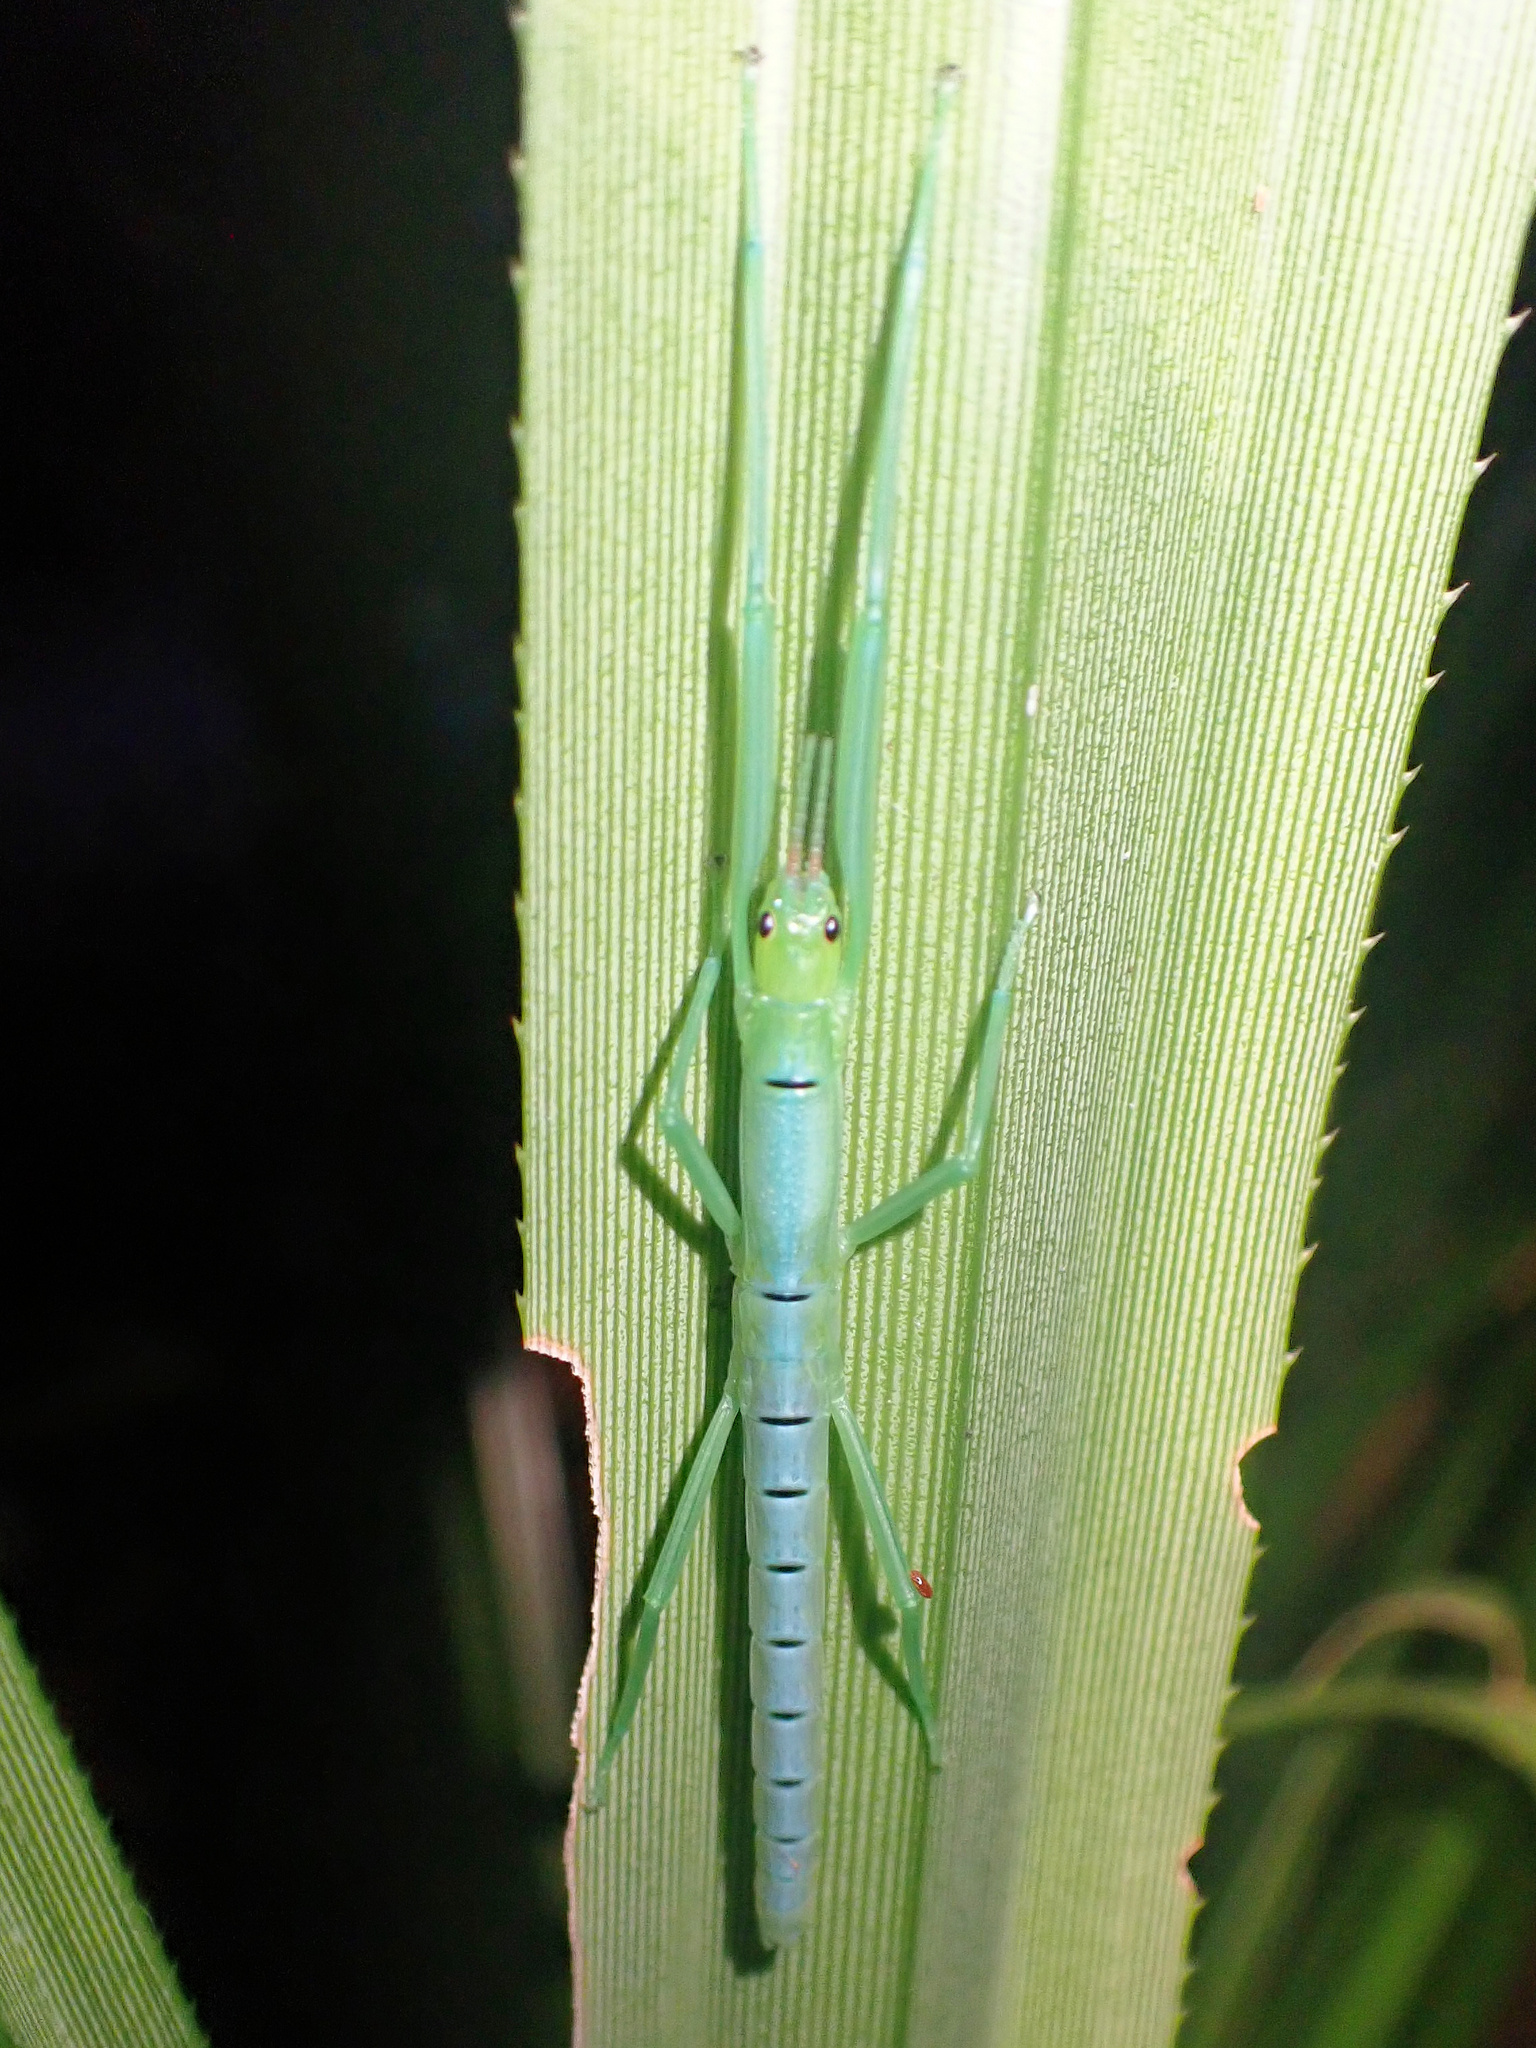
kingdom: Animalia
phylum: Arthropoda
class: Insecta
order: Phasmida
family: Phasmatidae
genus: Megacrania
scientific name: Megacrania batesii
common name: Peppermint stick-insect
